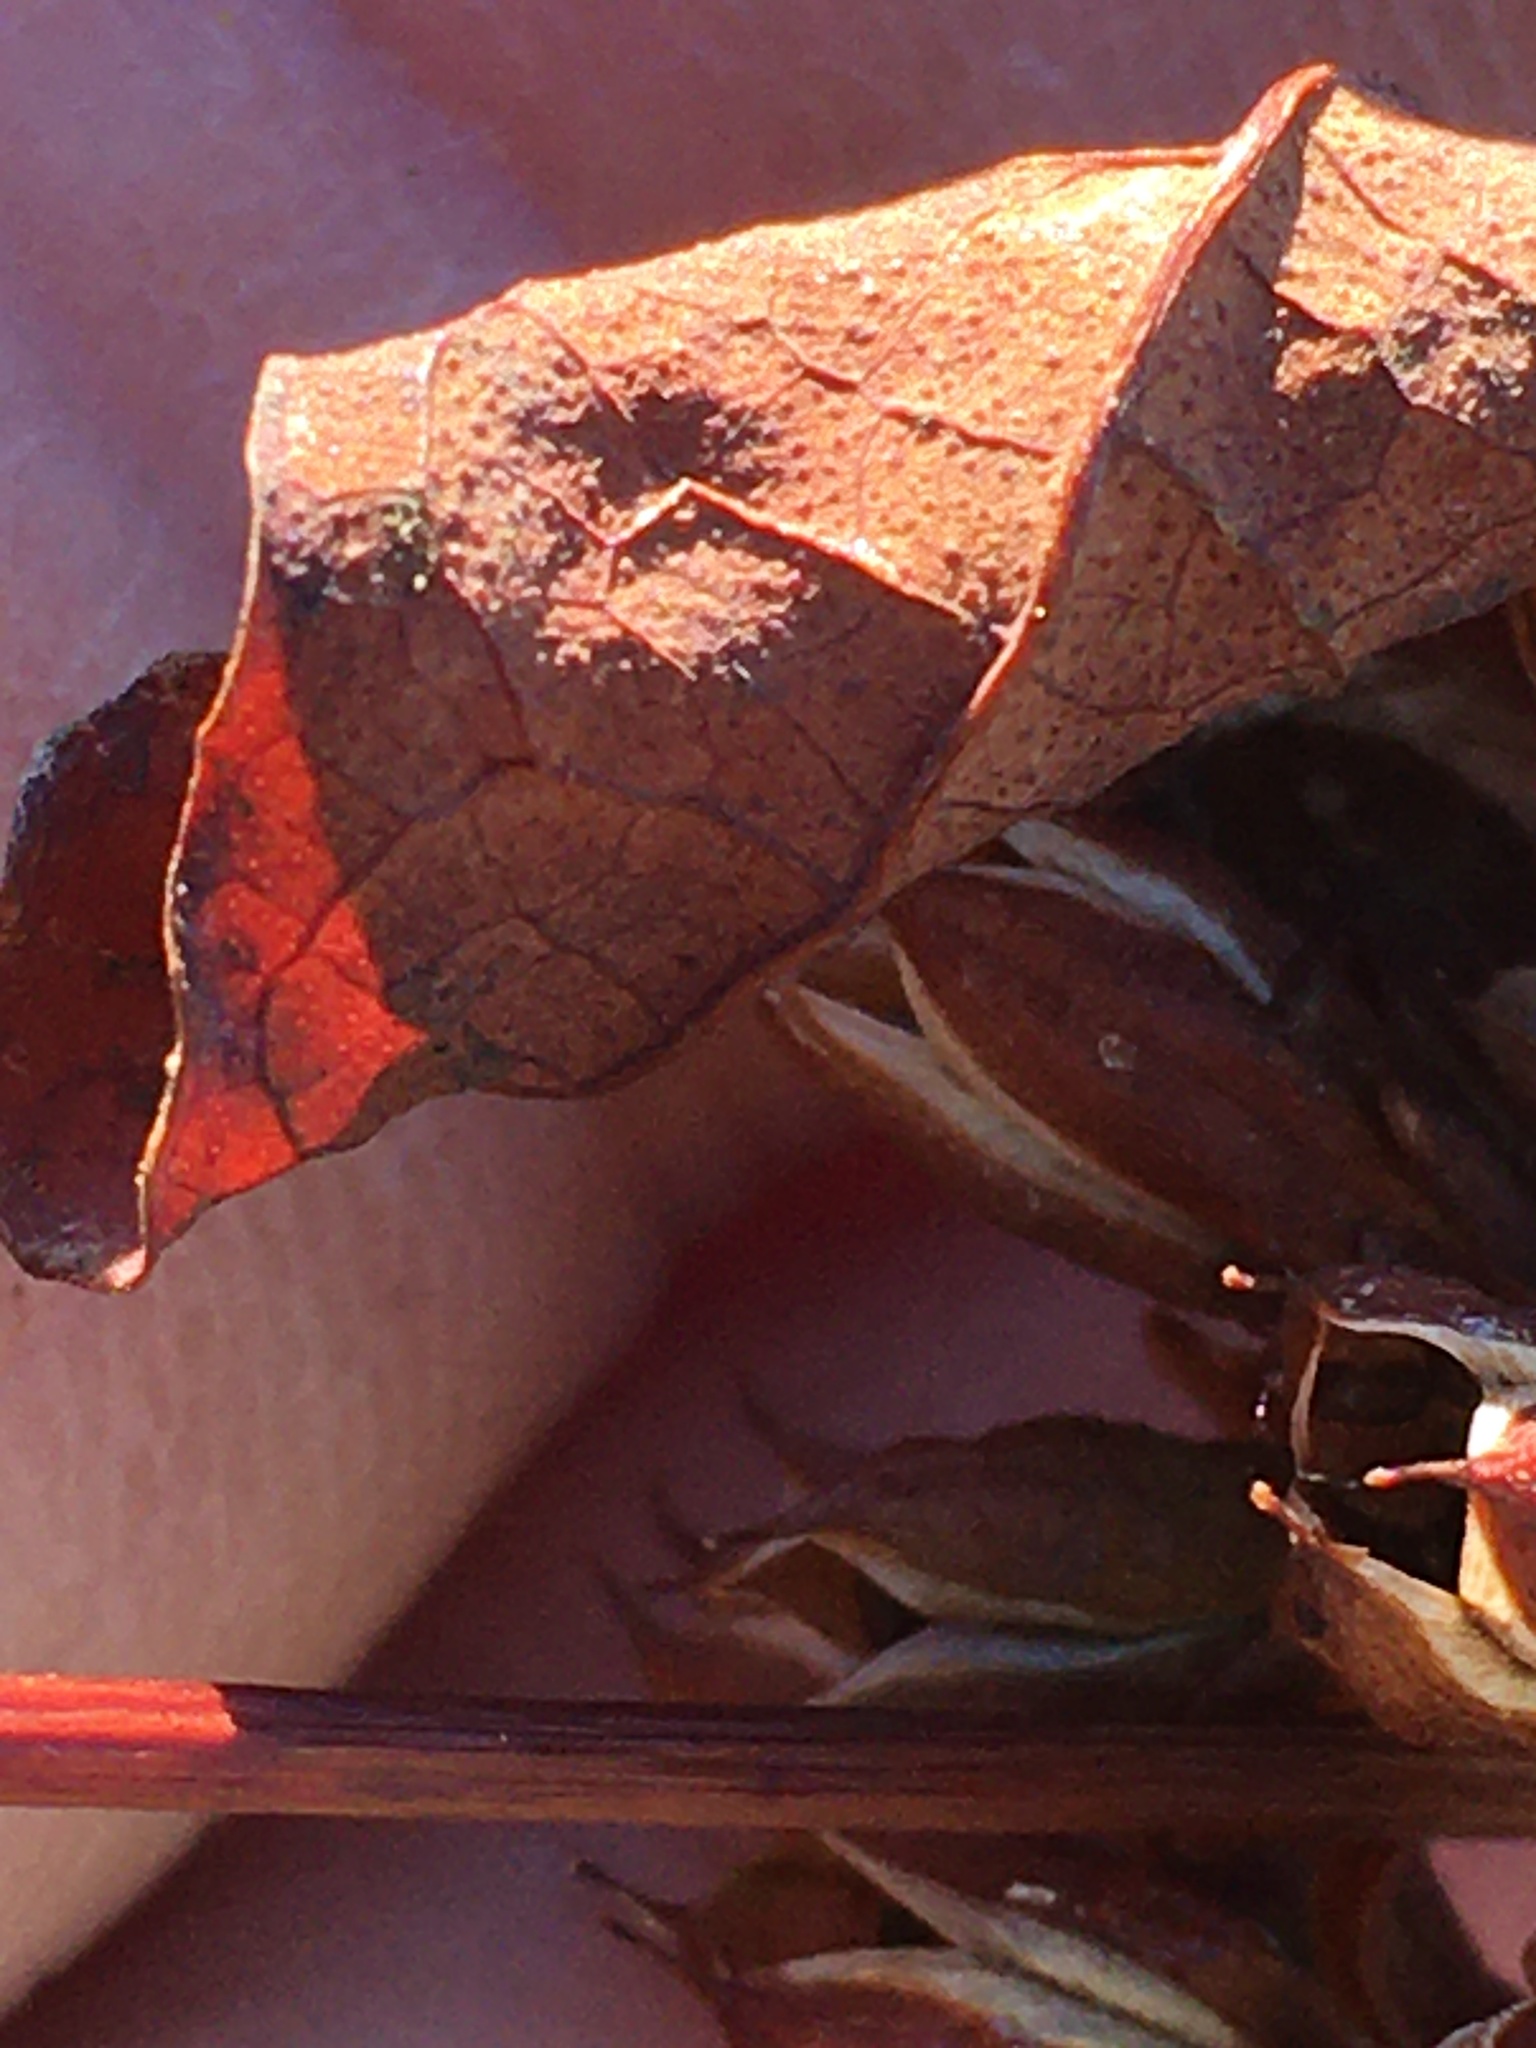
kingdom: Plantae
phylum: Tracheophyta
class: Magnoliopsida
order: Malpighiales
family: Hypericaceae
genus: Triadenum
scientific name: Triadenum walteri
